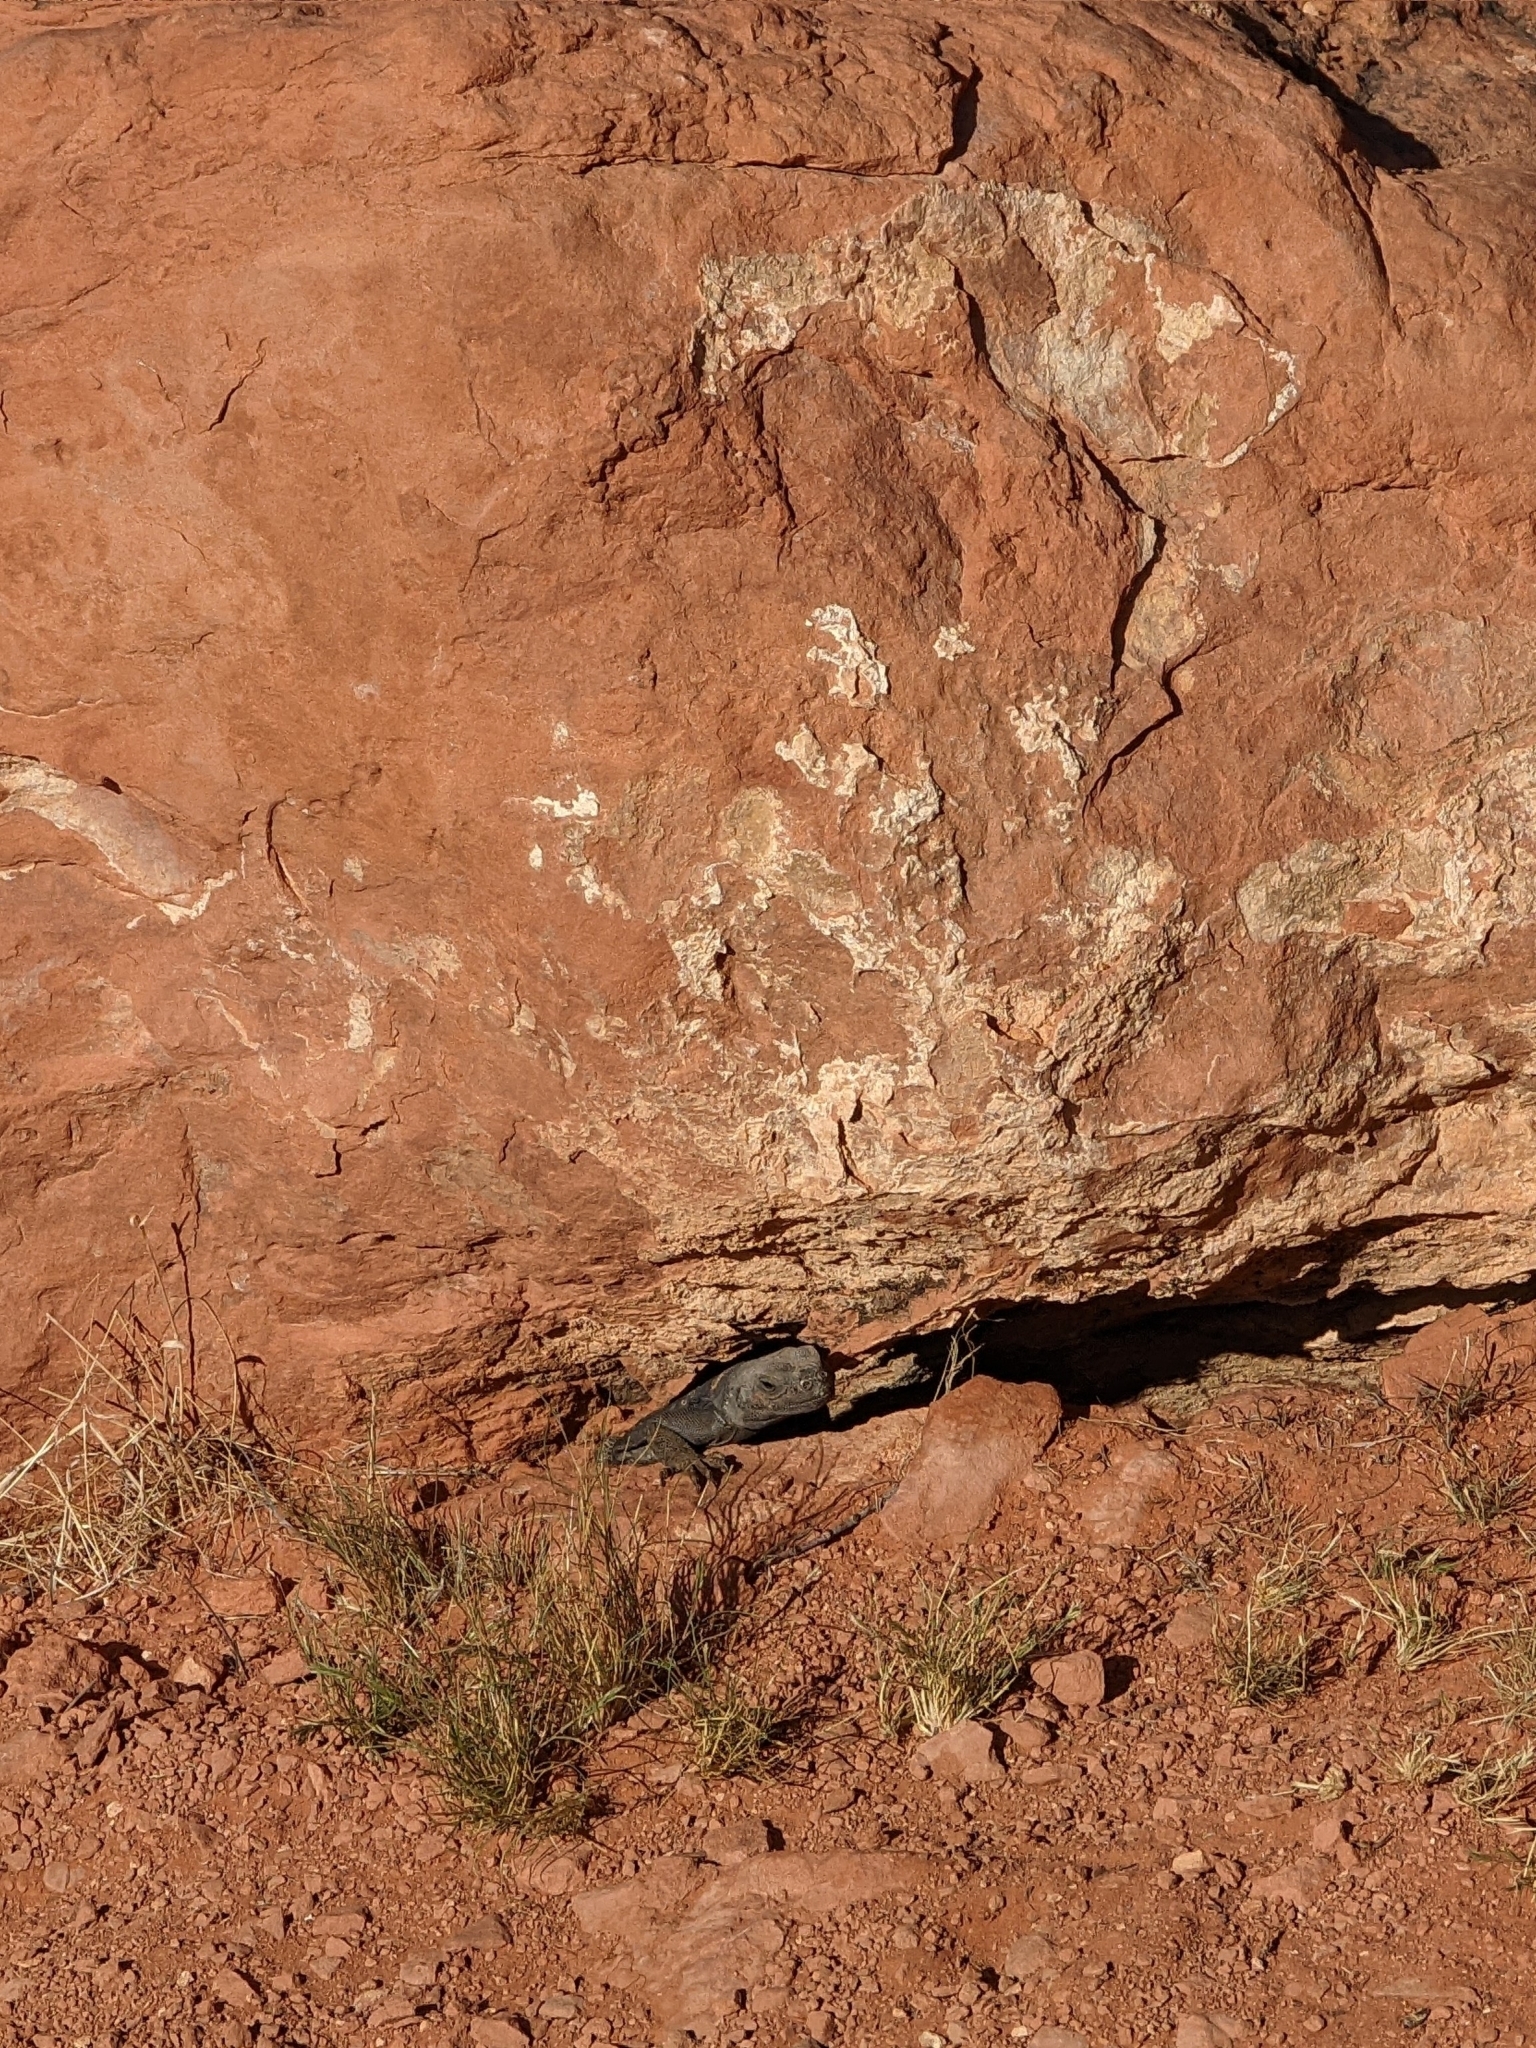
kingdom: Animalia
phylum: Chordata
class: Squamata
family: Iguanidae
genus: Sauromalus
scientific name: Sauromalus ater
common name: Northern chuckwalla
